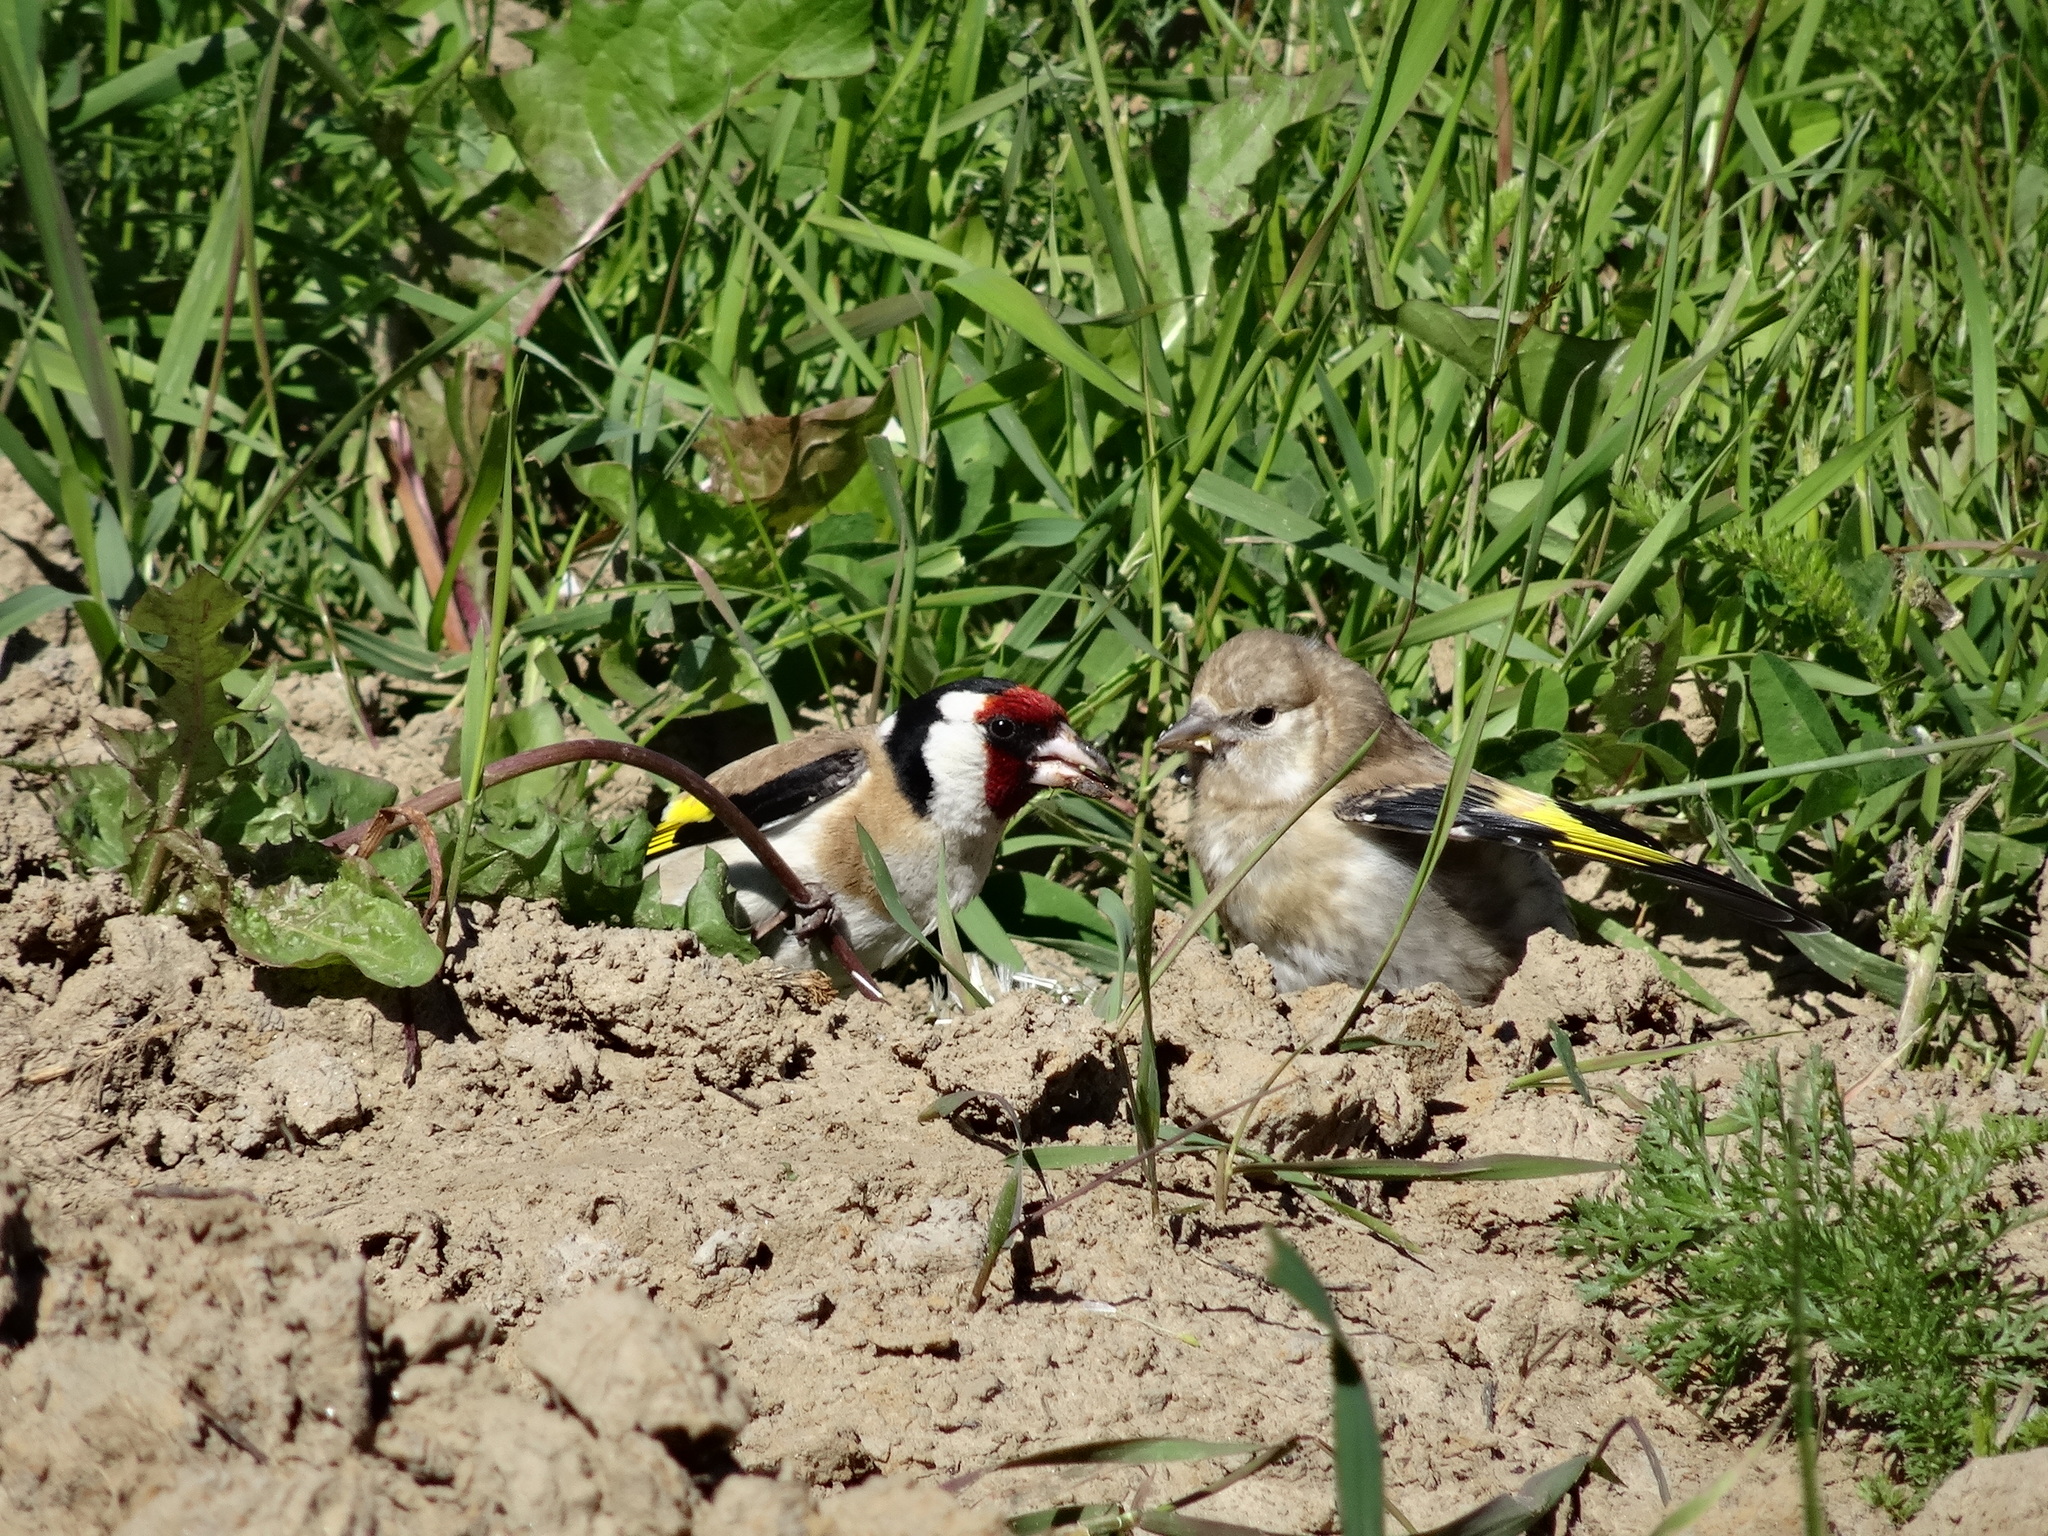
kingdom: Animalia
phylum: Chordata
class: Aves
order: Passeriformes
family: Fringillidae
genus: Carduelis
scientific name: Carduelis carduelis
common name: European goldfinch
